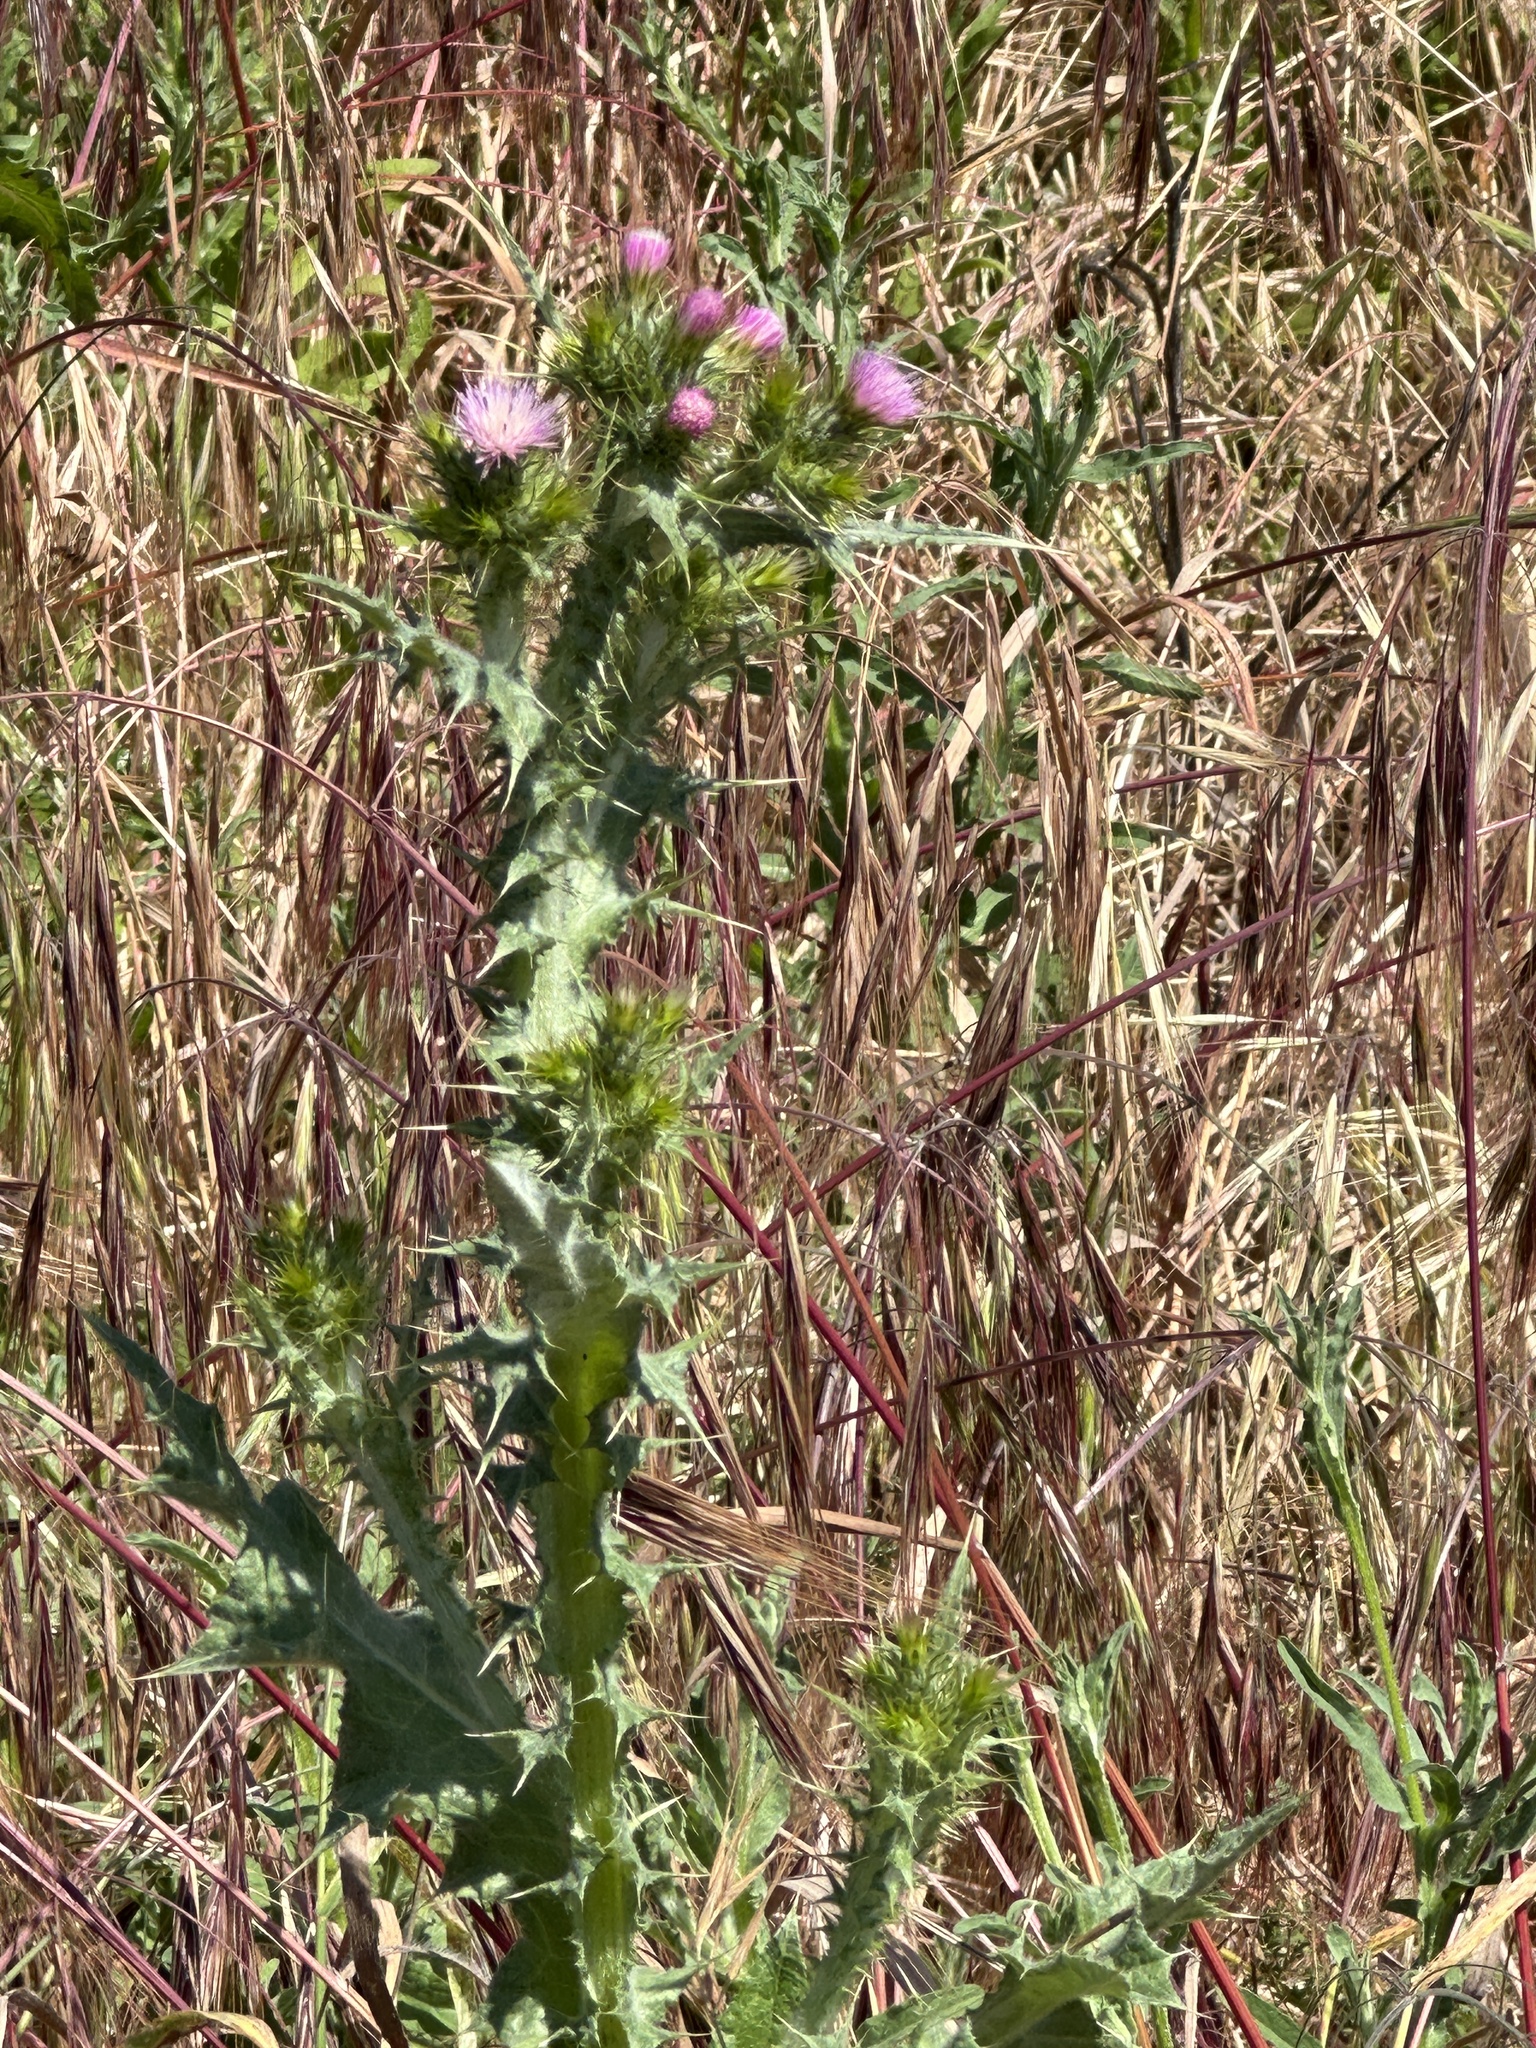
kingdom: Plantae
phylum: Tracheophyta
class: Magnoliopsida
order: Asterales
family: Asteraceae
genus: Carduus
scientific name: Carduus pycnocephalus
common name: Plymouth thistle
